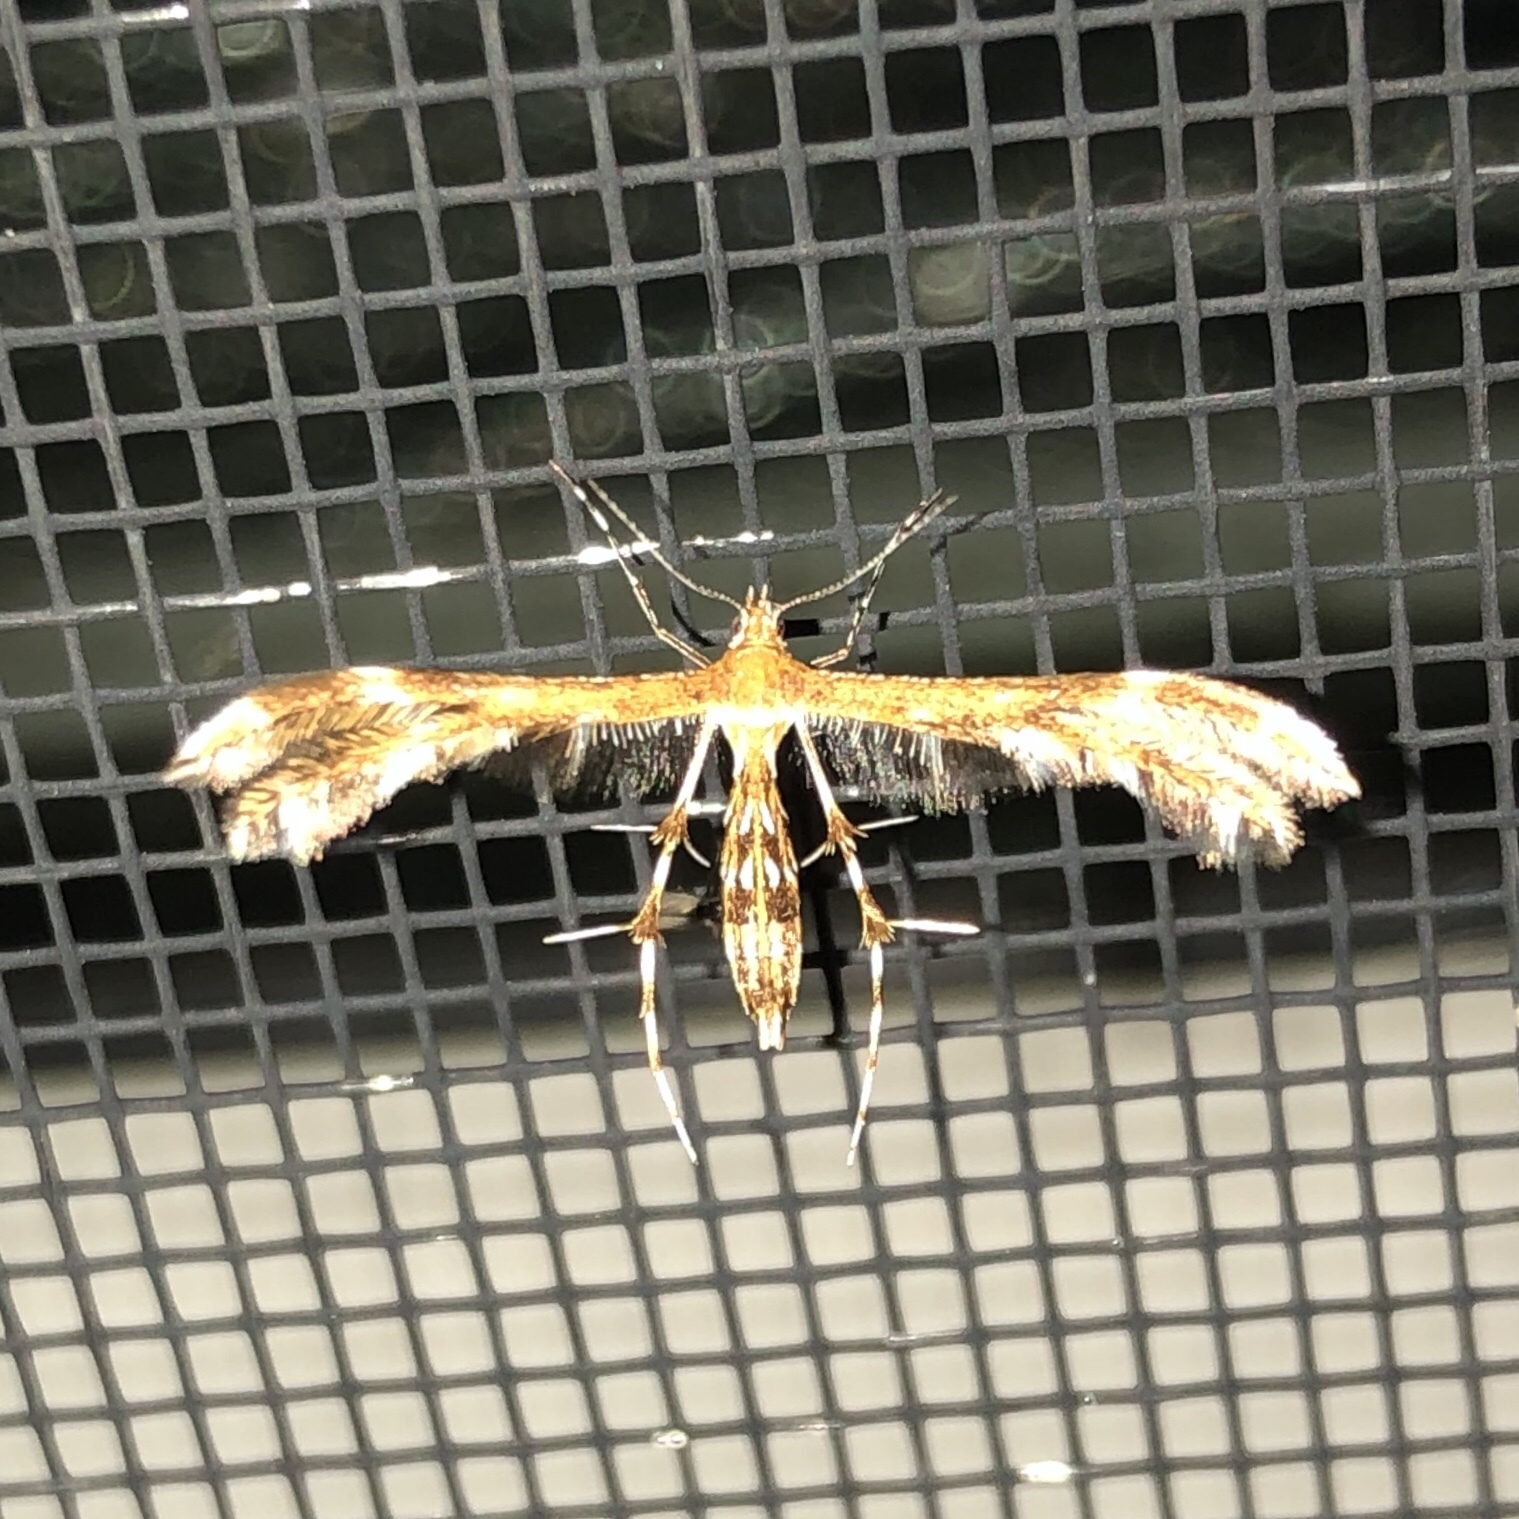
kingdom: Animalia
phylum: Arthropoda
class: Insecta
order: Lepidoptera
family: Pterophoridae
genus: Dejongia
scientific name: Dejongia lobidactylus
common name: Lobed plume moth
